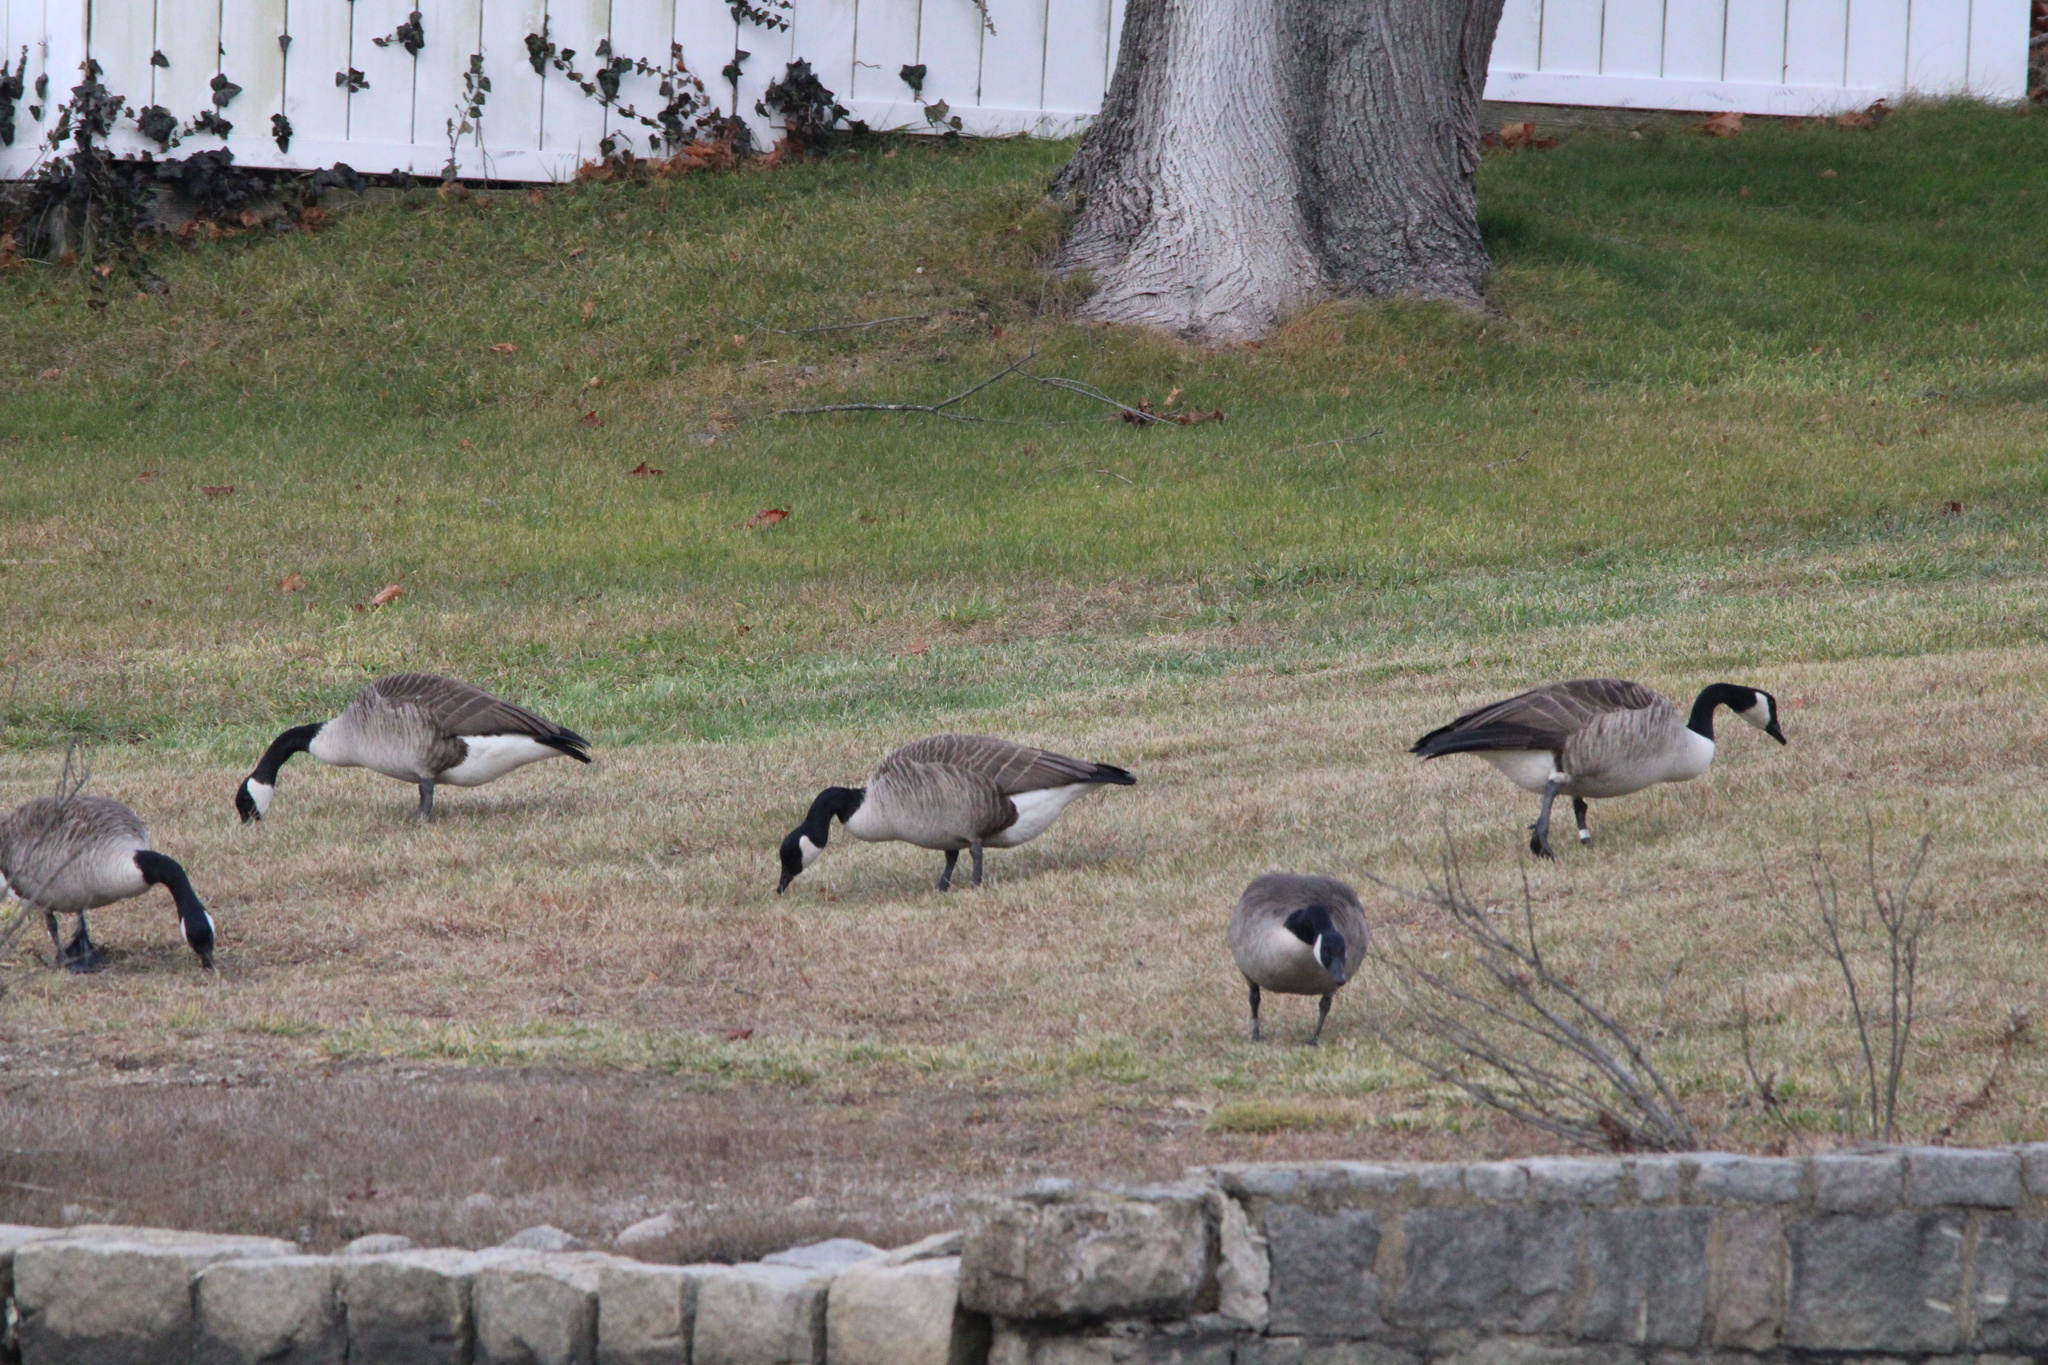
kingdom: Animalia
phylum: Chordata
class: Aves
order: Anseriformes
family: Anatidae
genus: Branta
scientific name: Branta canadensis
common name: Canada goose
